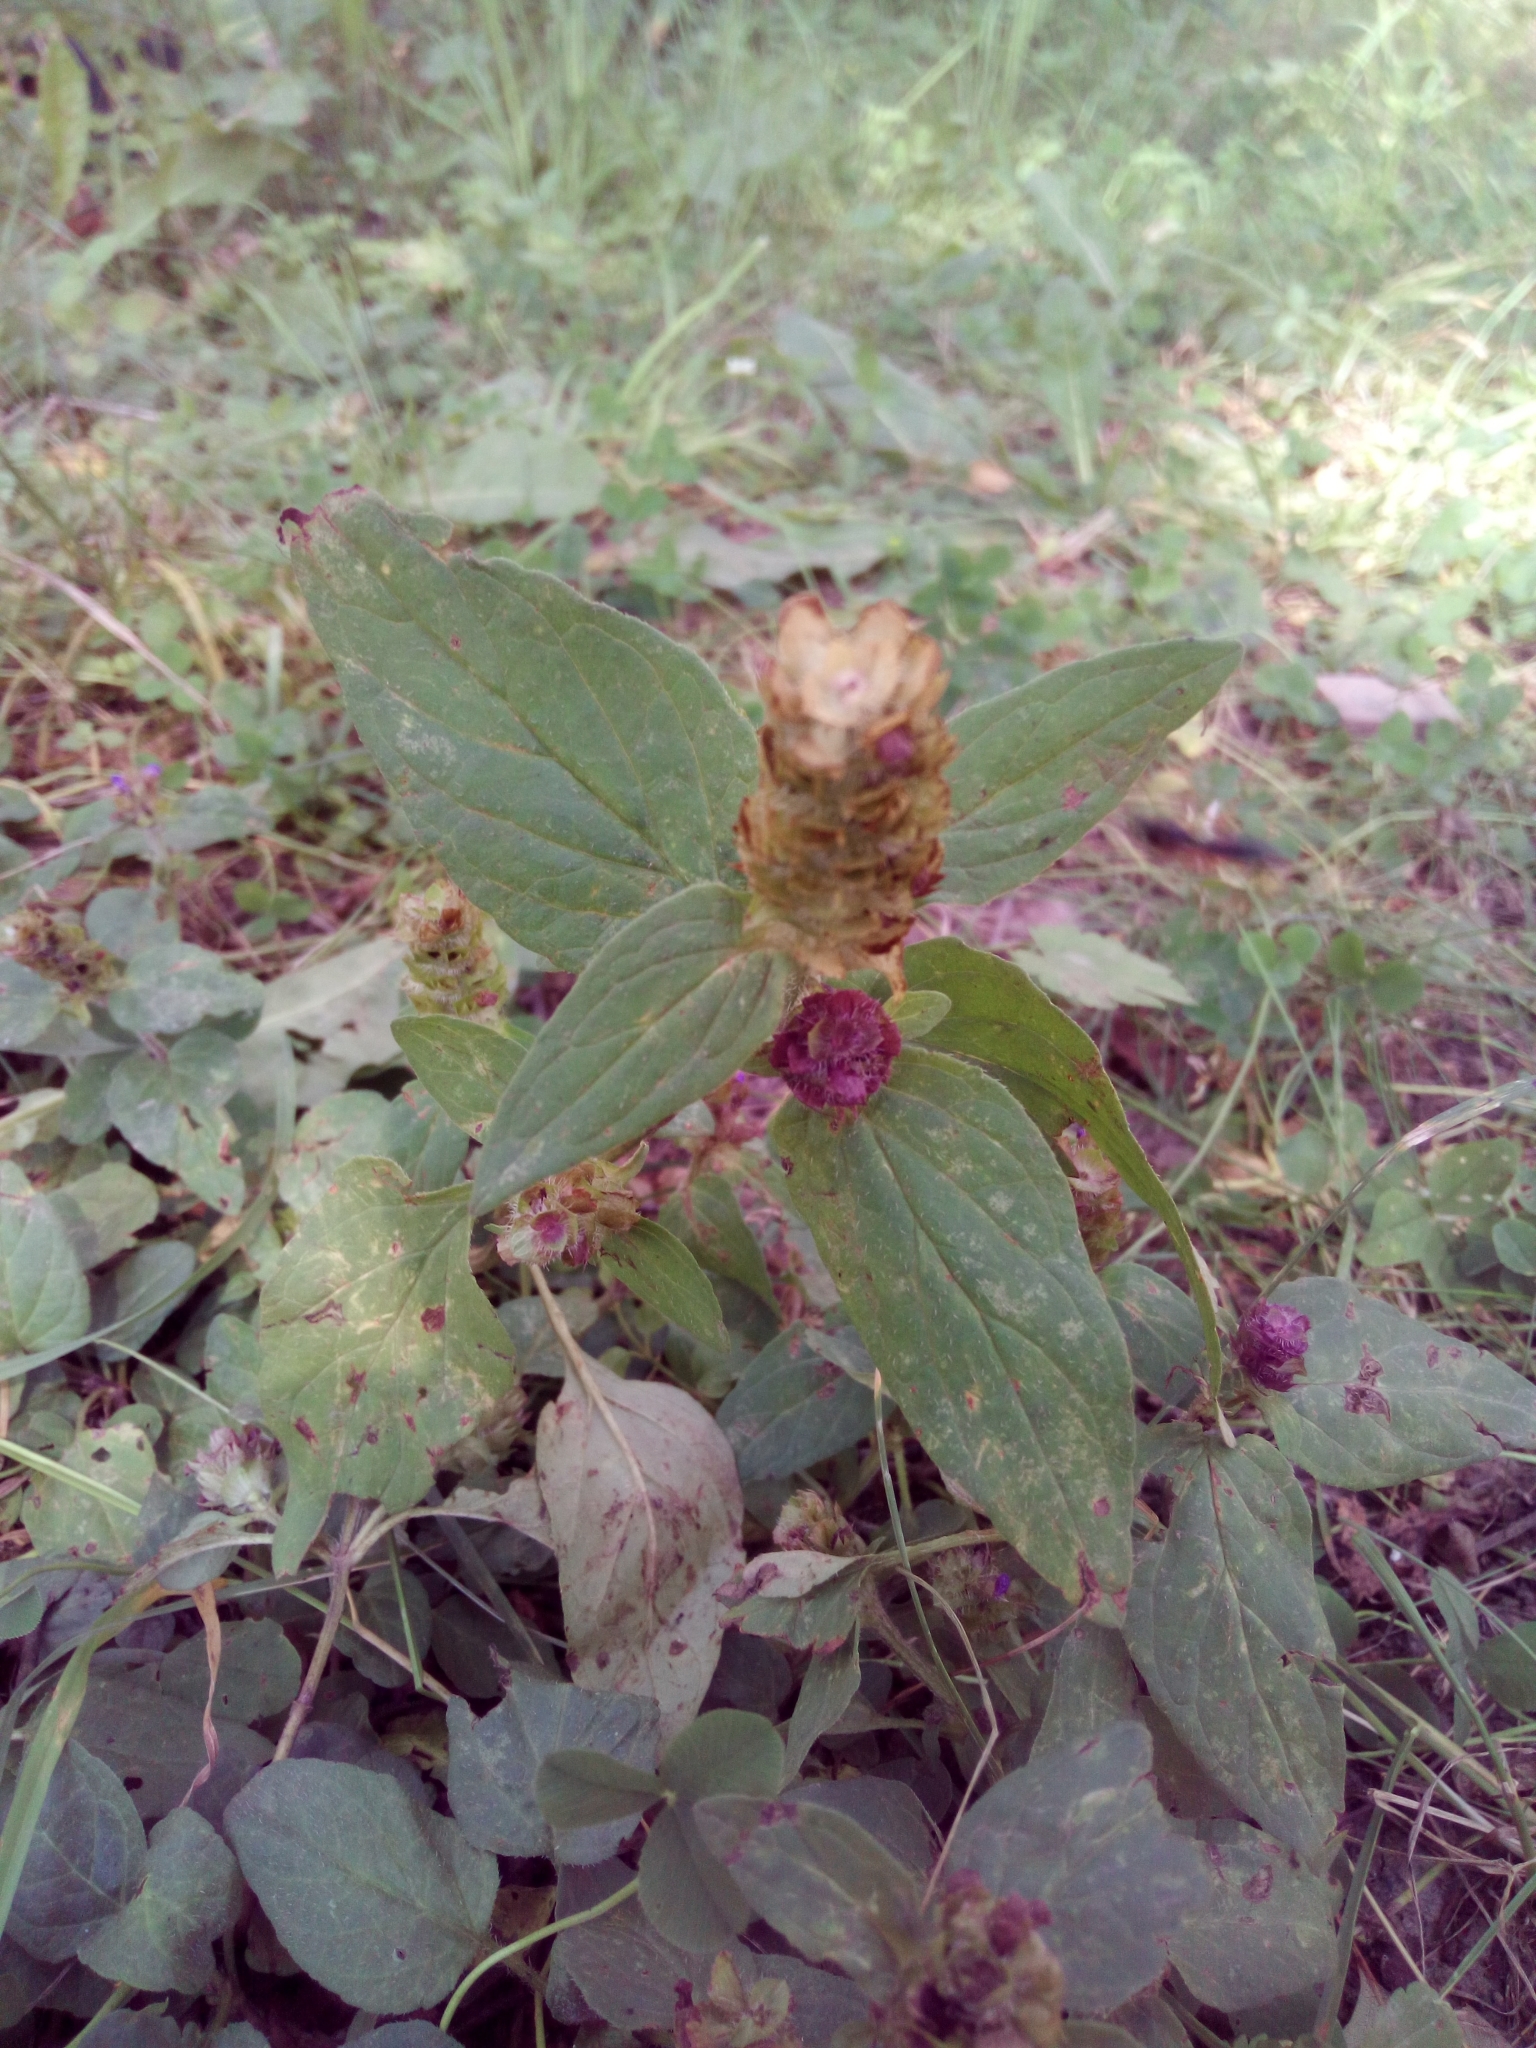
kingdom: Plantae
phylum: Tracheophyta
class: Magnoliopsida
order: Lamiales
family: Lamiaceae
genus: Prunella
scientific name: Prunella vulgaris
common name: Heal-all
